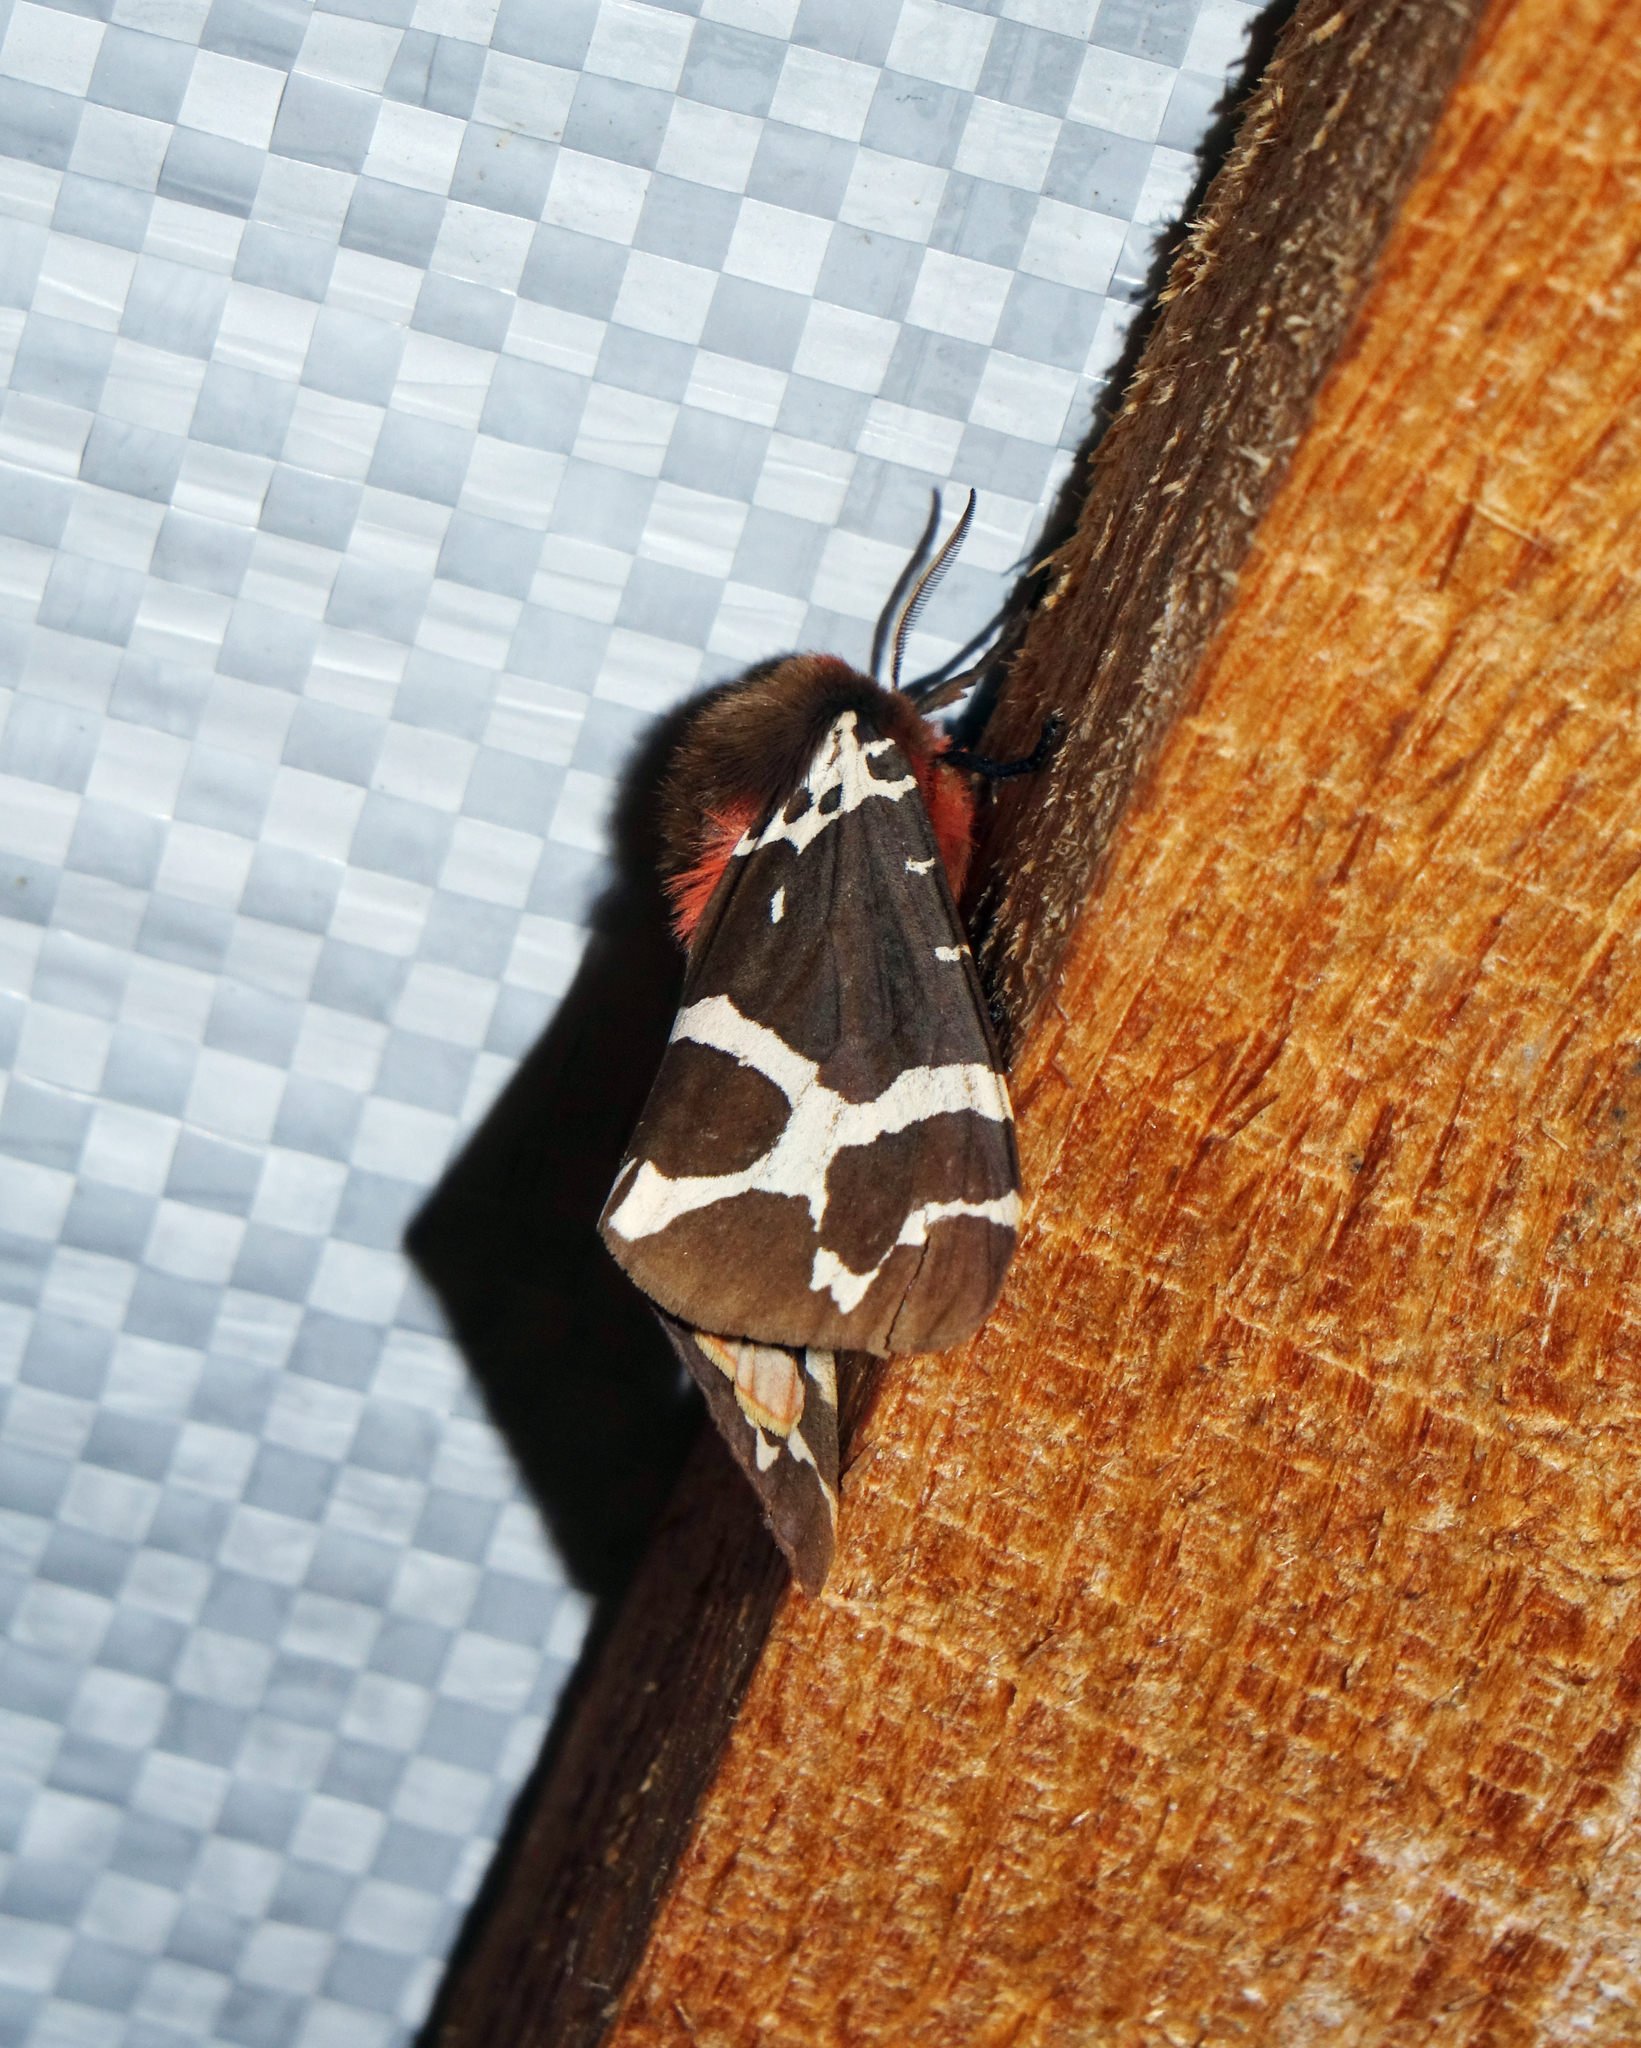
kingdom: Animalia
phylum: Arthropoda
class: Insecta
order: Lepidoptera
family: Erebidae
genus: Arctia
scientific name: Arctia caja
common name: Garden tiger
